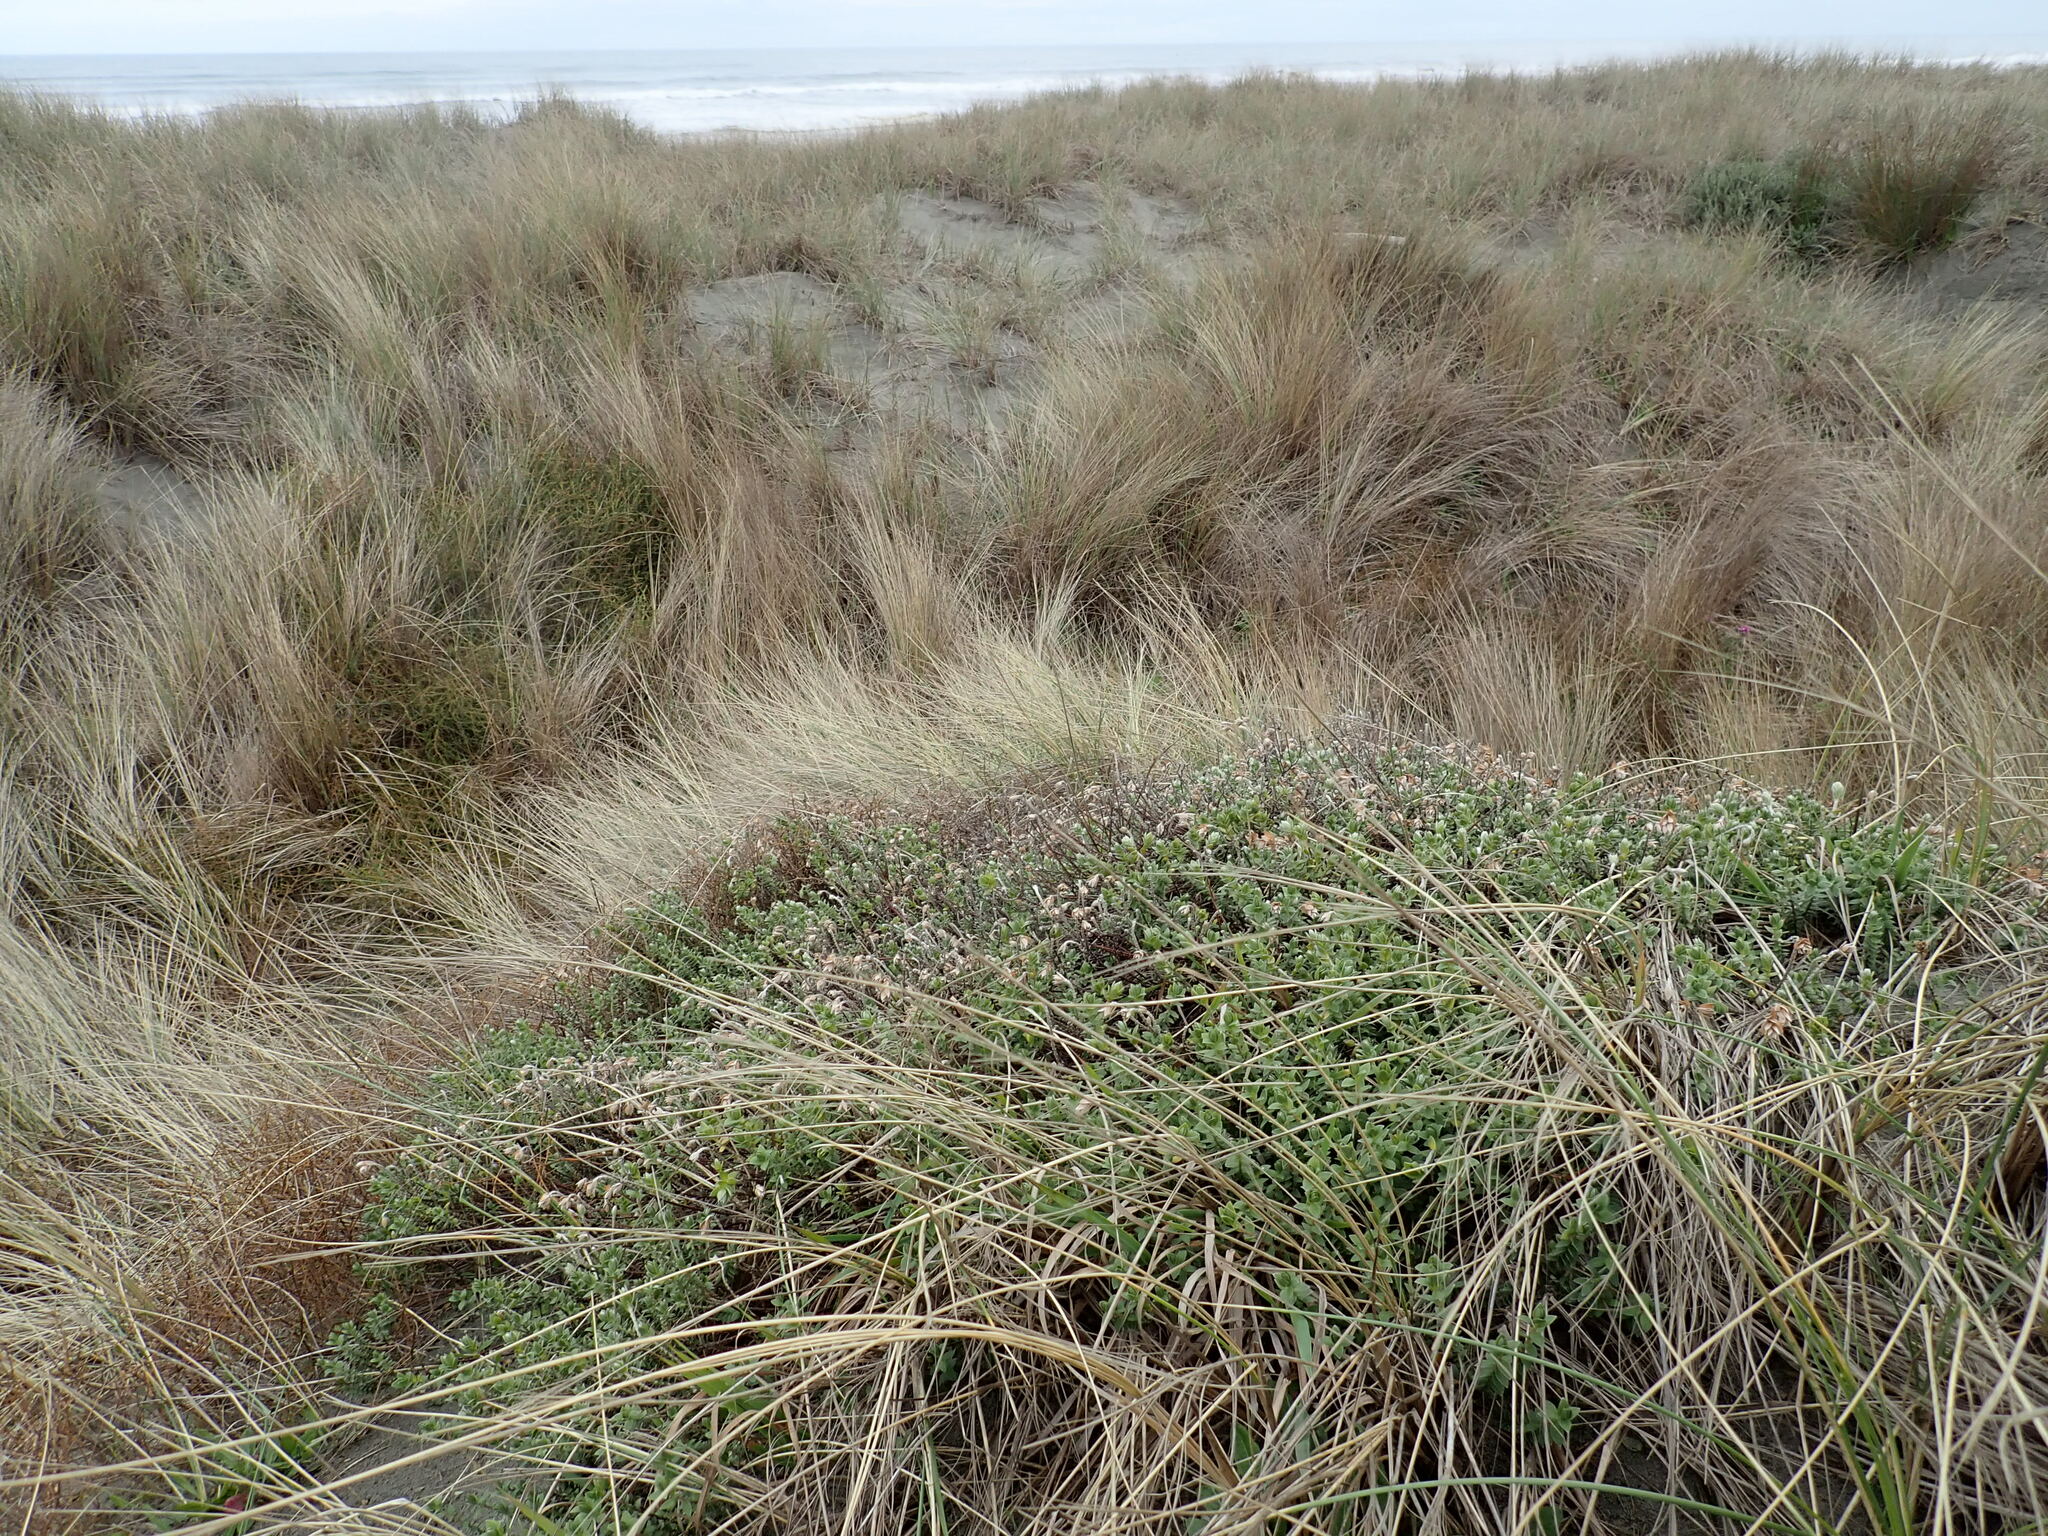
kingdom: Plantae
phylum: Tracheophyta
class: Magnoliopsida
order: Malvales
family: Thymelaeaceae
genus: Pimelea
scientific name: Pimelea villosa
